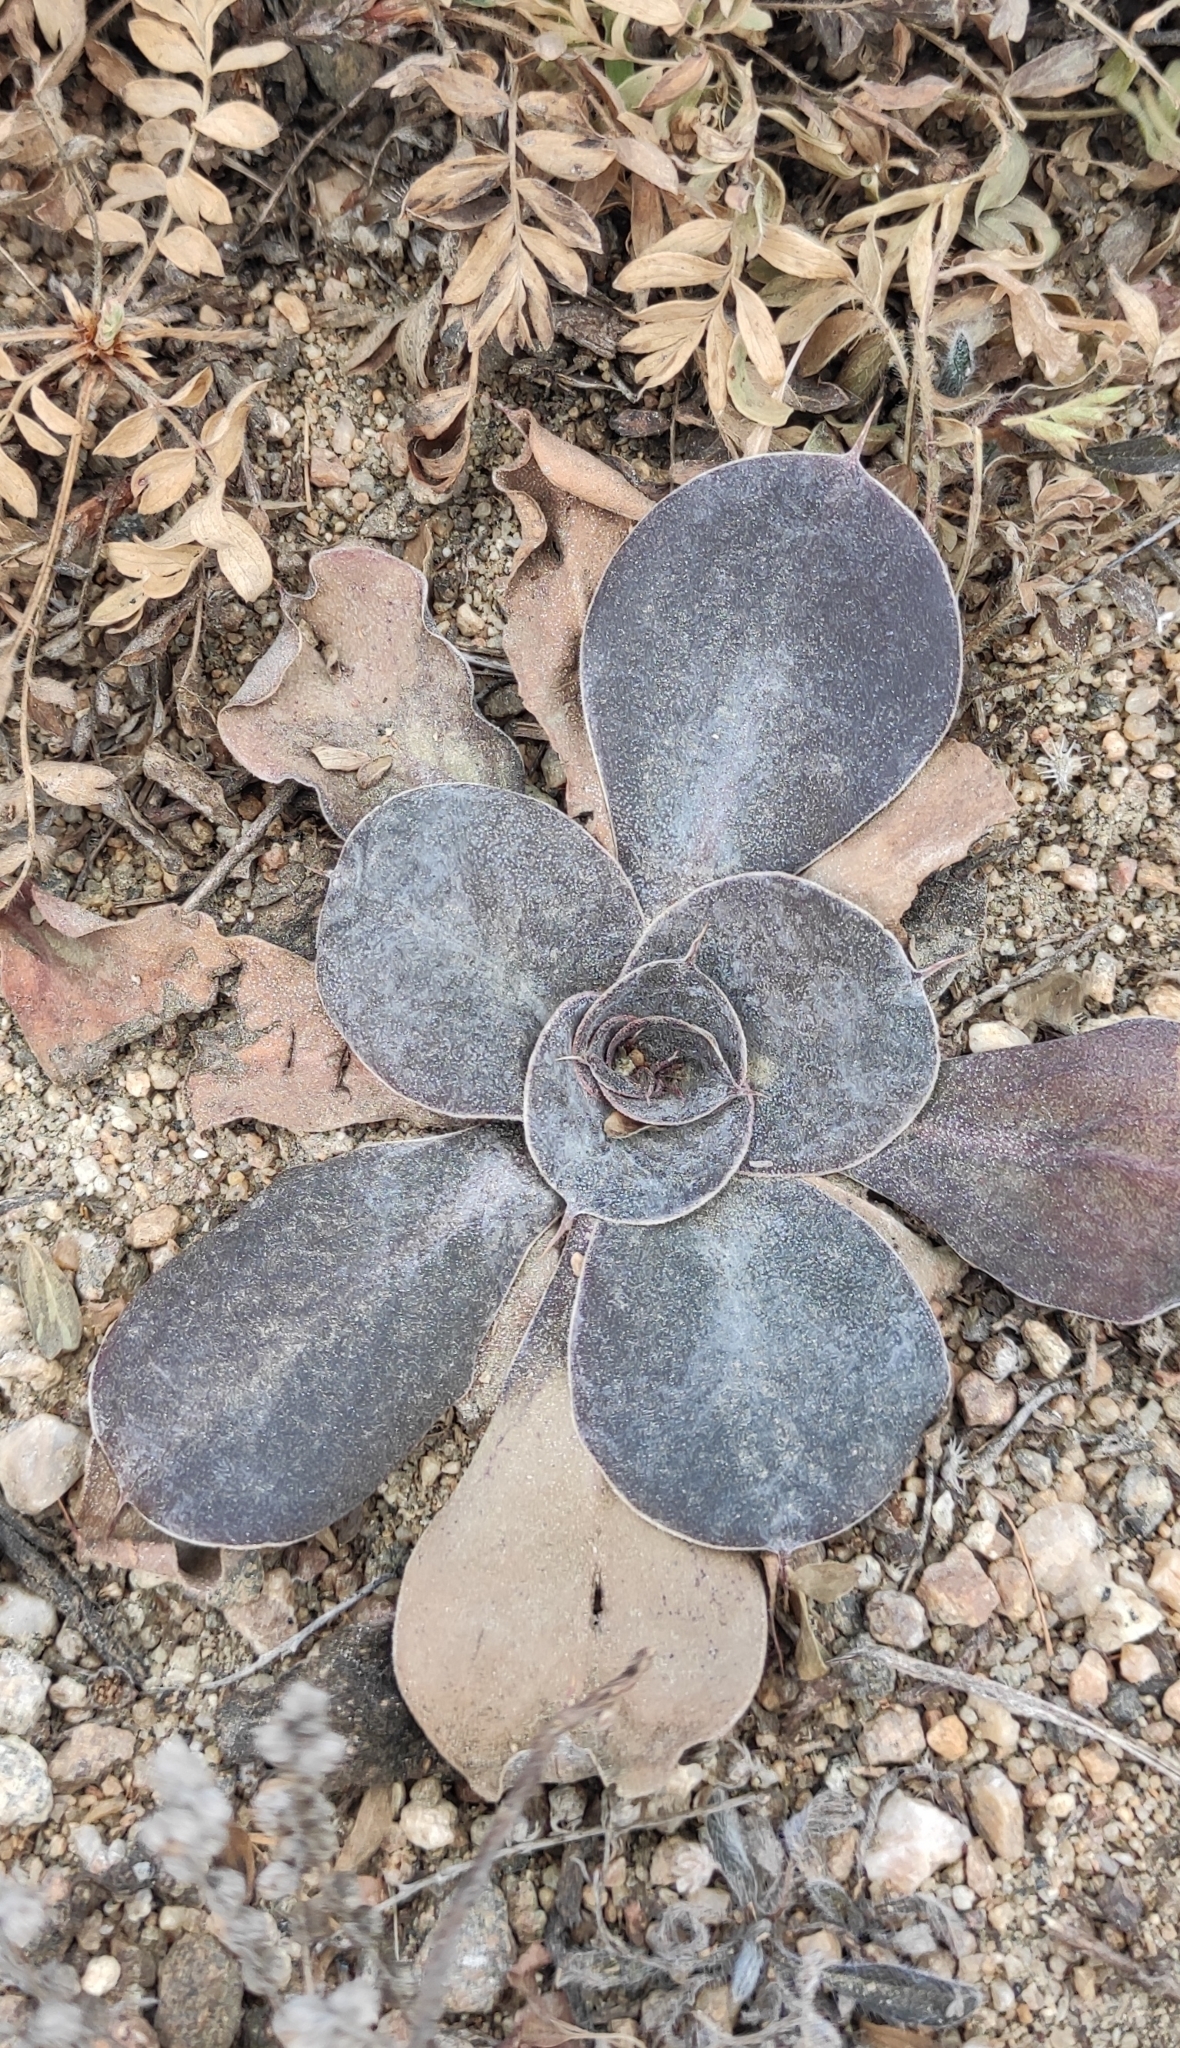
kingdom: Plantae
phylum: Tracheophyta
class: Magnoliopsida
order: Caryophyllales
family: Plumbaginaceae
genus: Goniolimon
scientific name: Goniolimon speciosum
